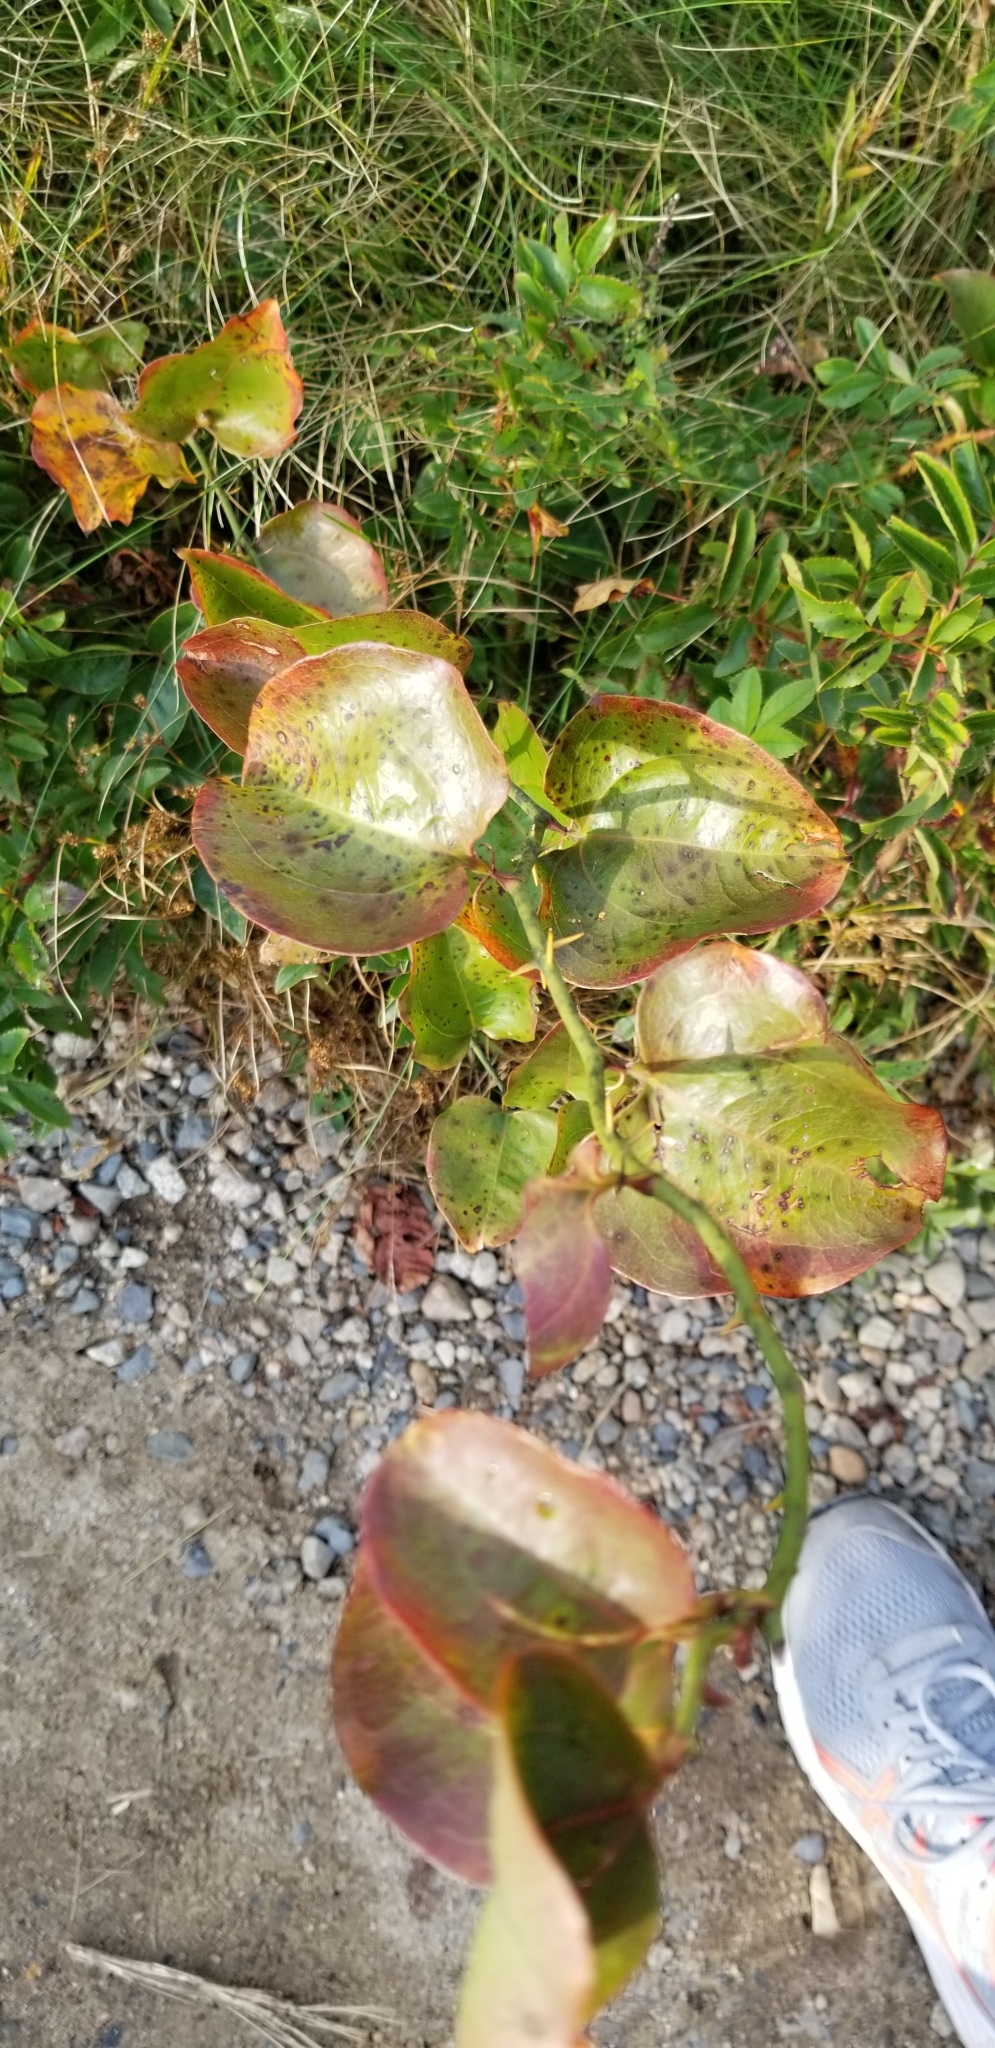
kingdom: Plantae
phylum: Tracheophyta
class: Liliopsida
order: Liliales
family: Smilacaceae
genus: Smilax
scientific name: Smilax rotundifolia
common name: Bullbriar
